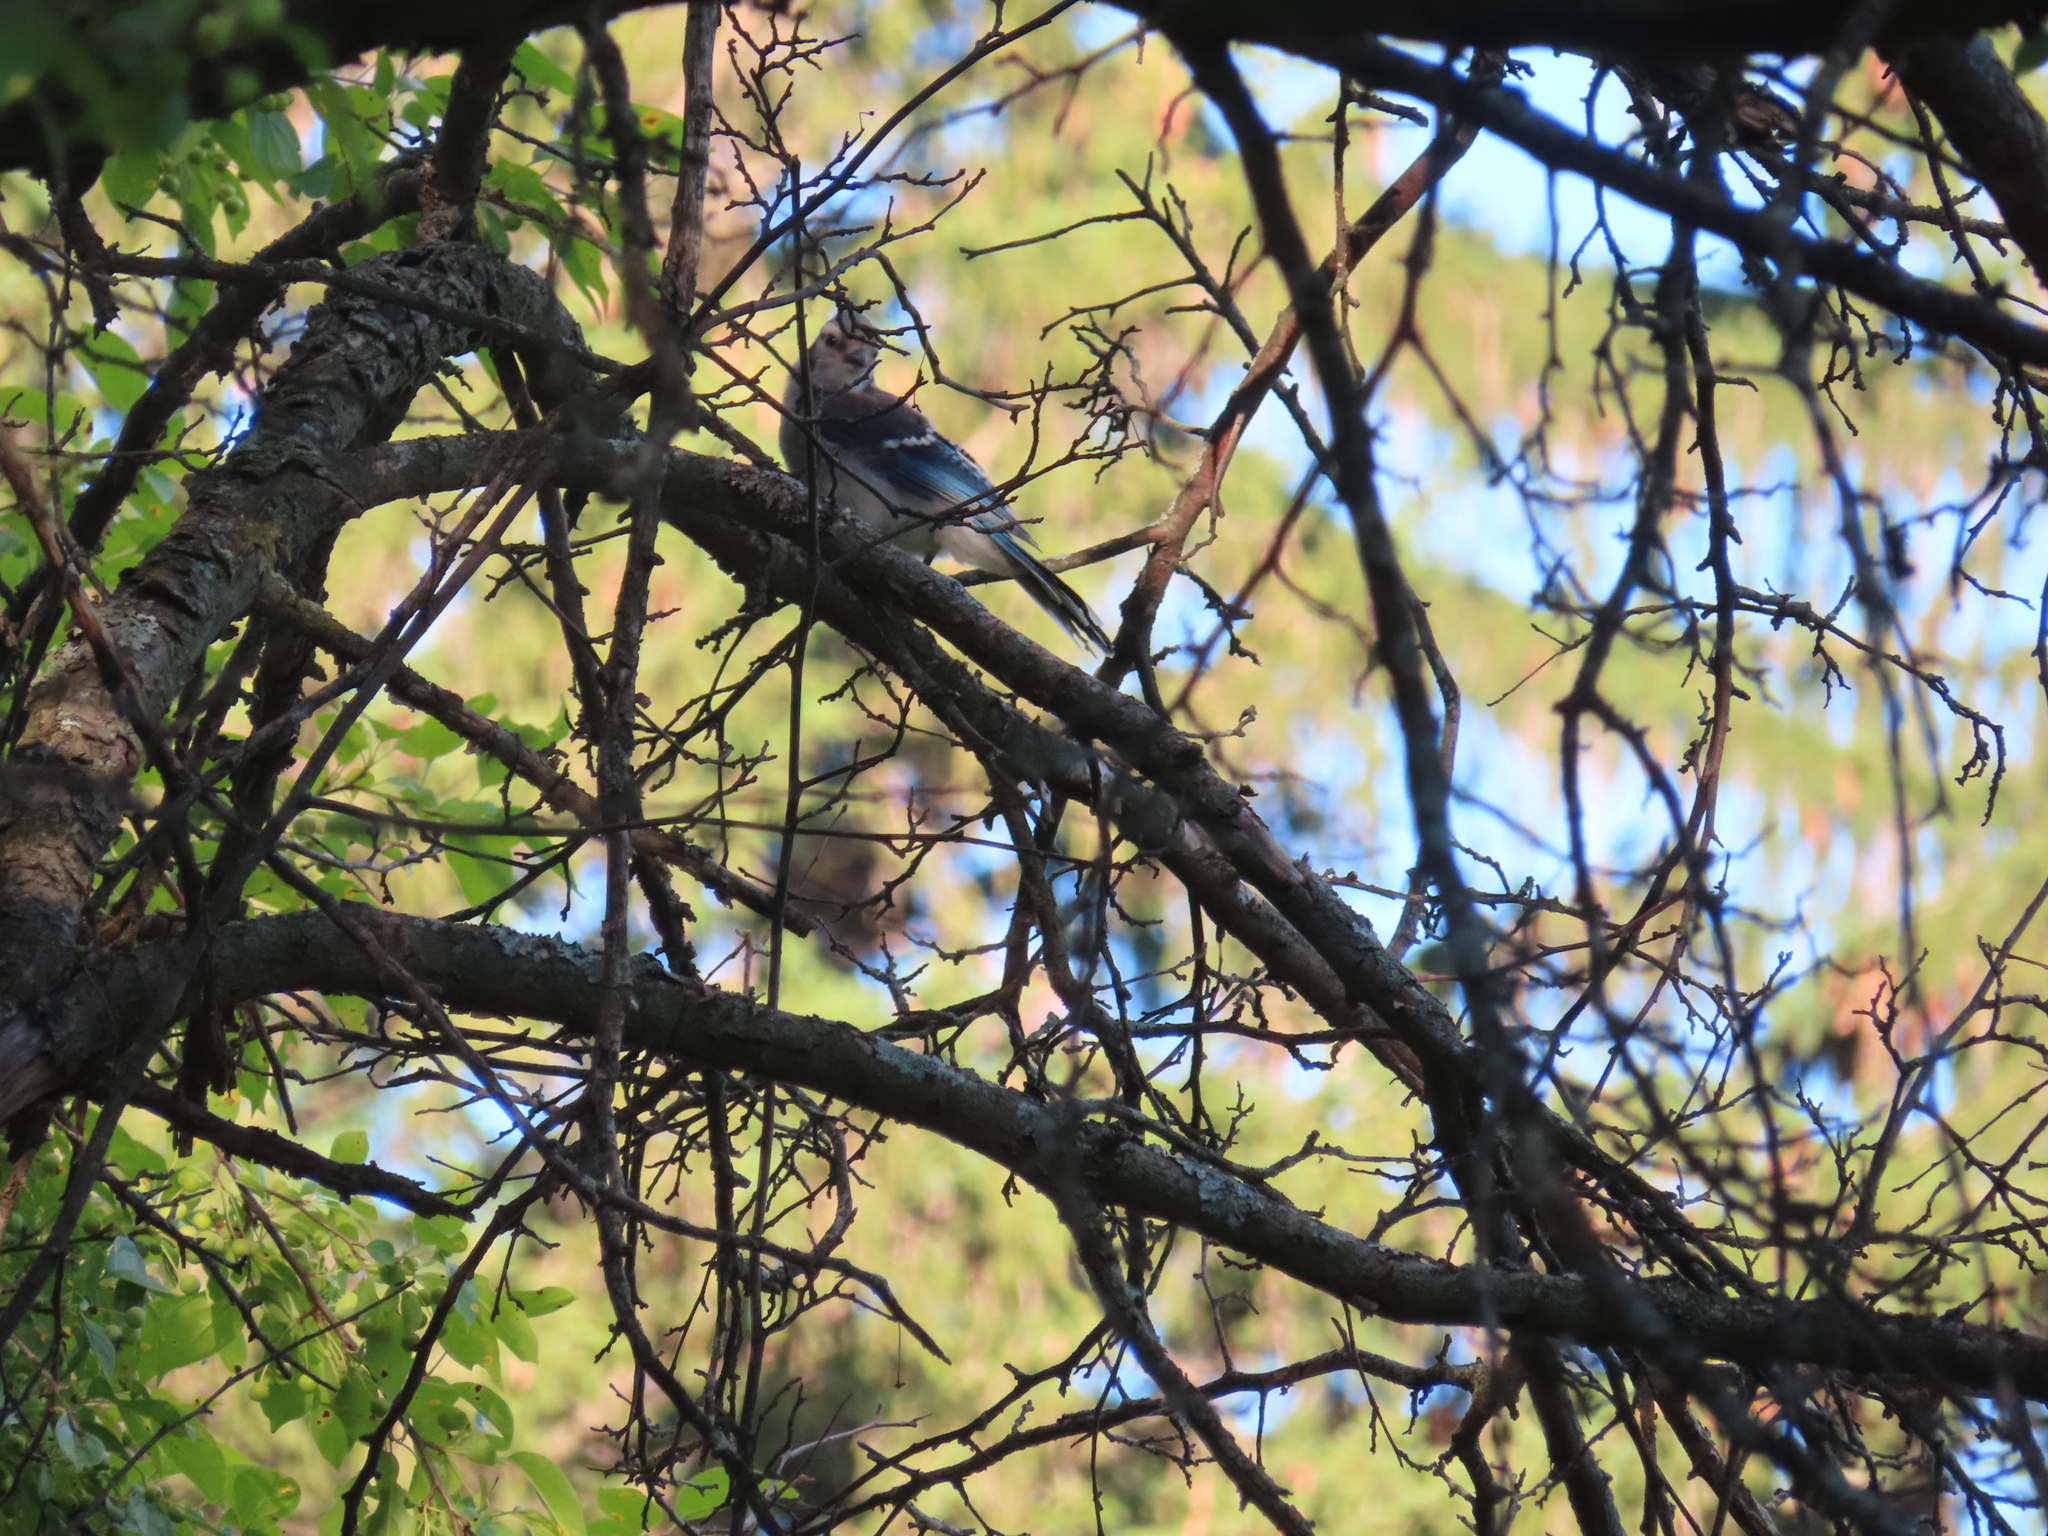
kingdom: Animalia
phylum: Chordata
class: Aves
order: Passeriformes
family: Corvidae
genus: Cyanocitta
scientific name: Cyanocitta cristata
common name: Blue jay
